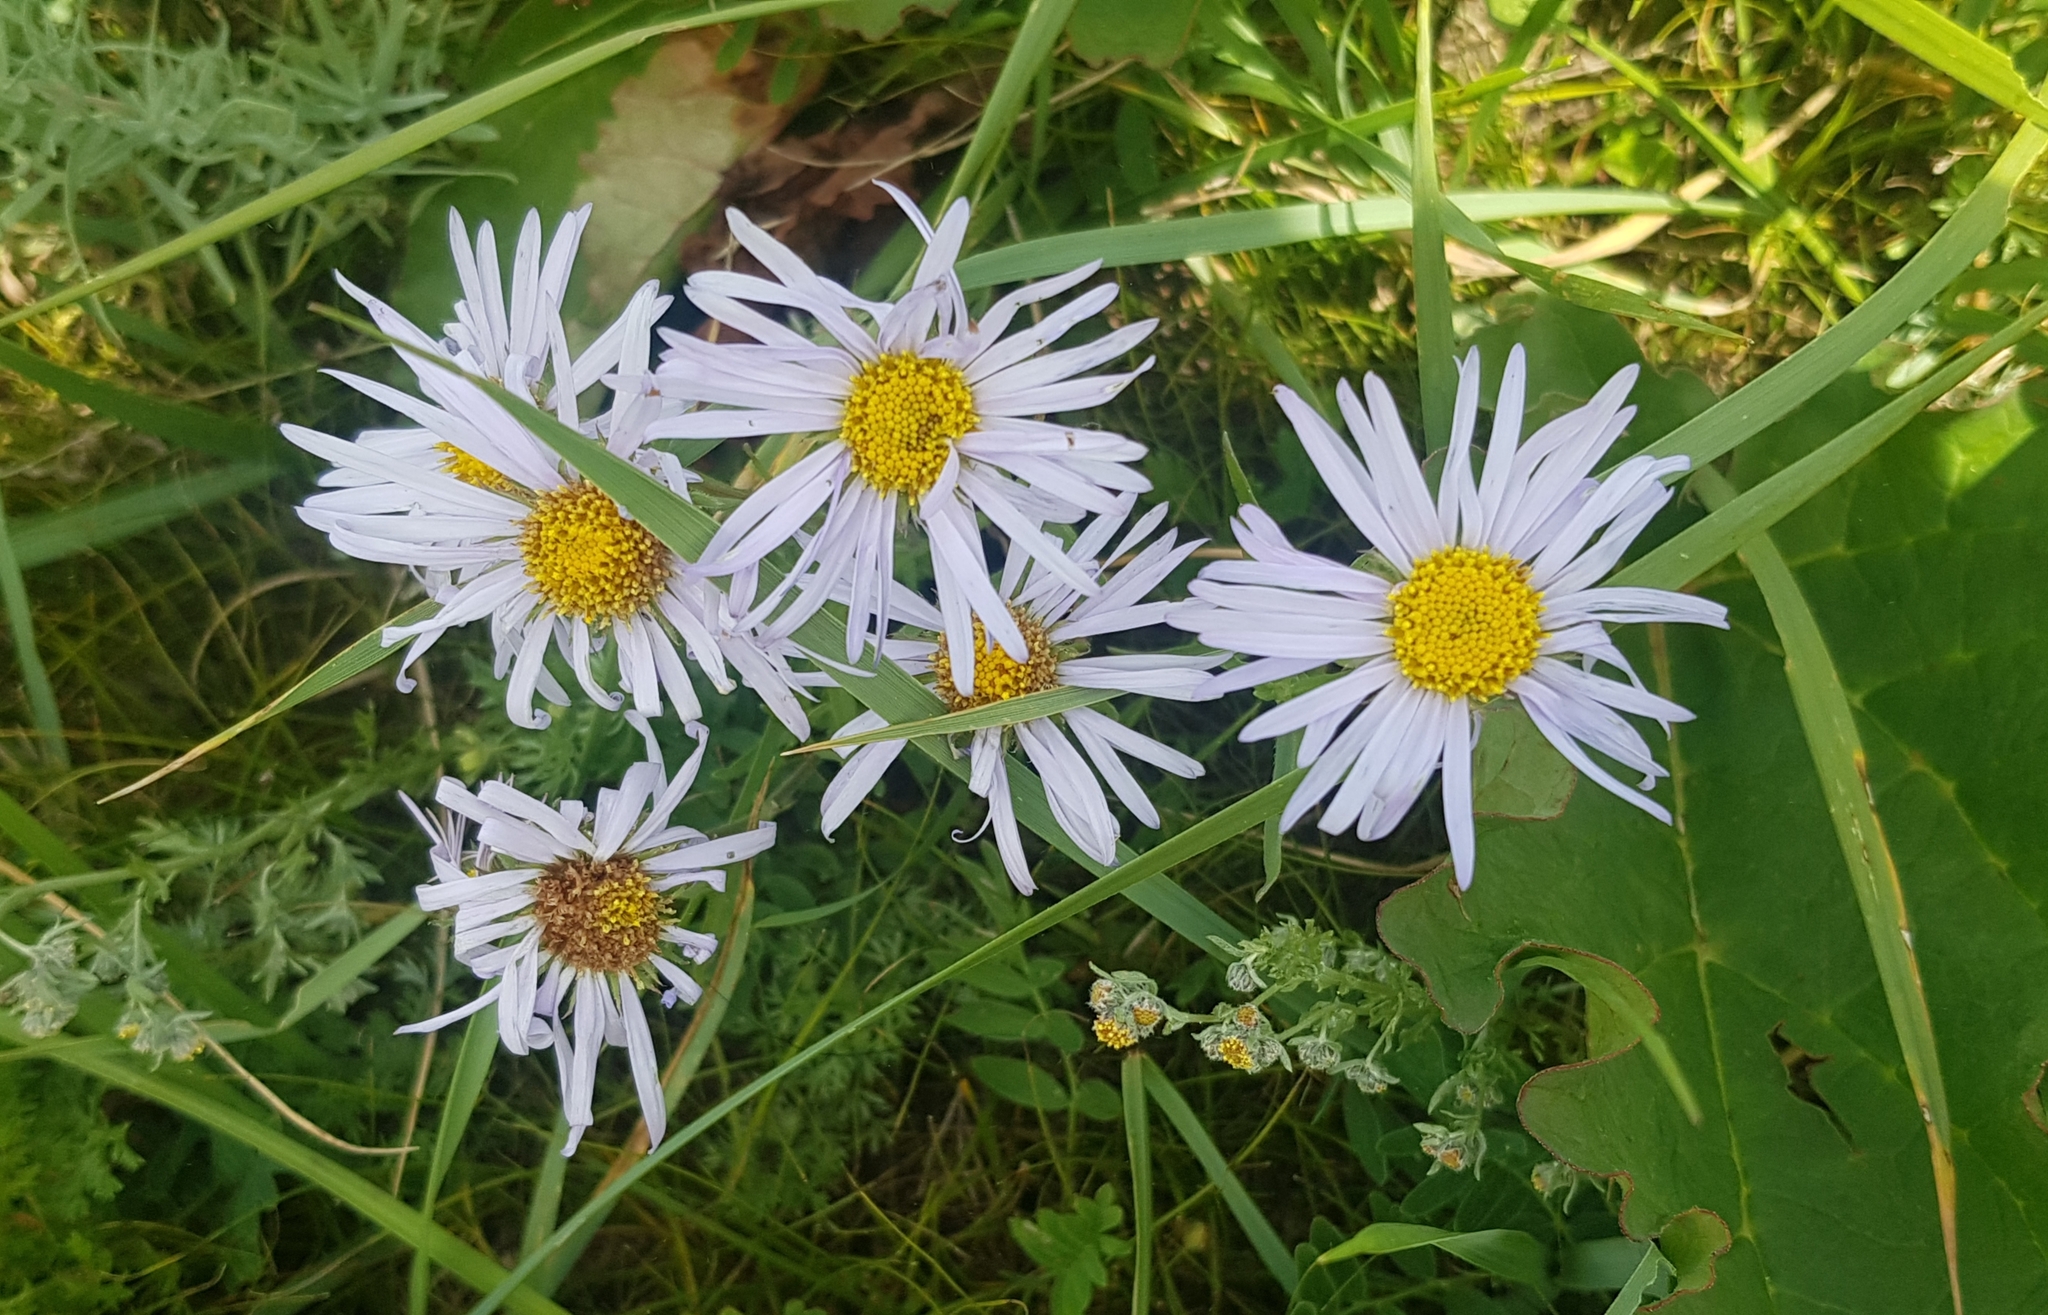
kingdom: Plantae
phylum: Tracheophyta
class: Magnoliopsida
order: Asterales
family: Asteraceae
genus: Heteropappus
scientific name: Heteropappus altaicus
